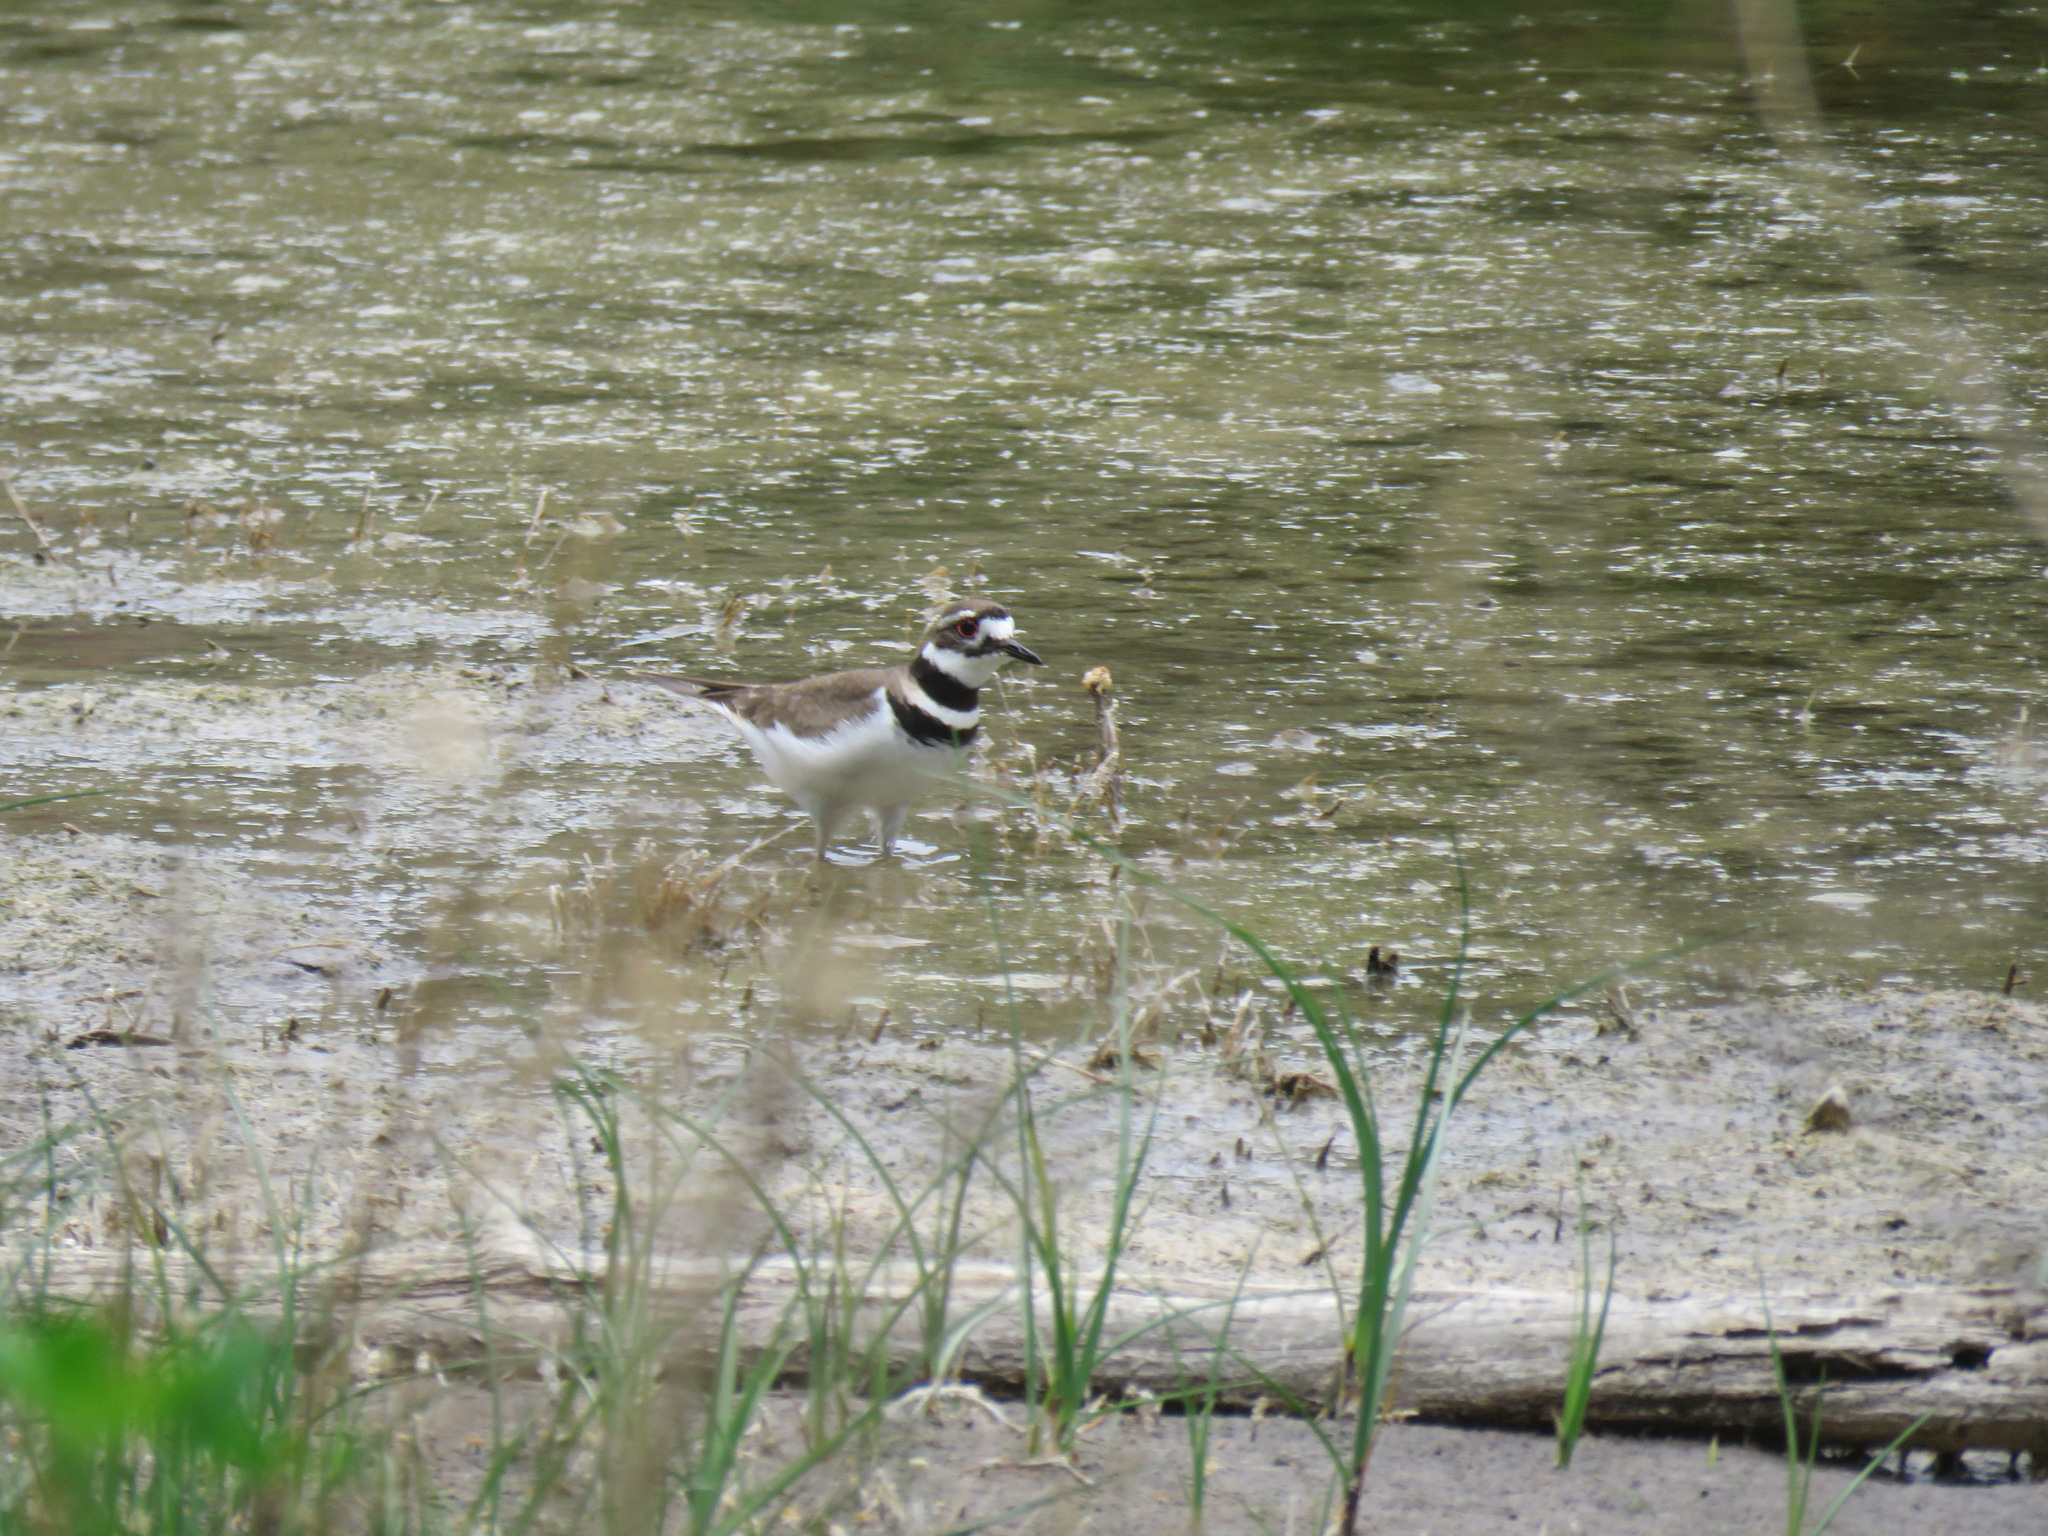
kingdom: Animalia
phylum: Chordata
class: Aves
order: Charadriiformes
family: Charadriidae
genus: Charadrius
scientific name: Charadrius vociferus
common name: Killdeer
